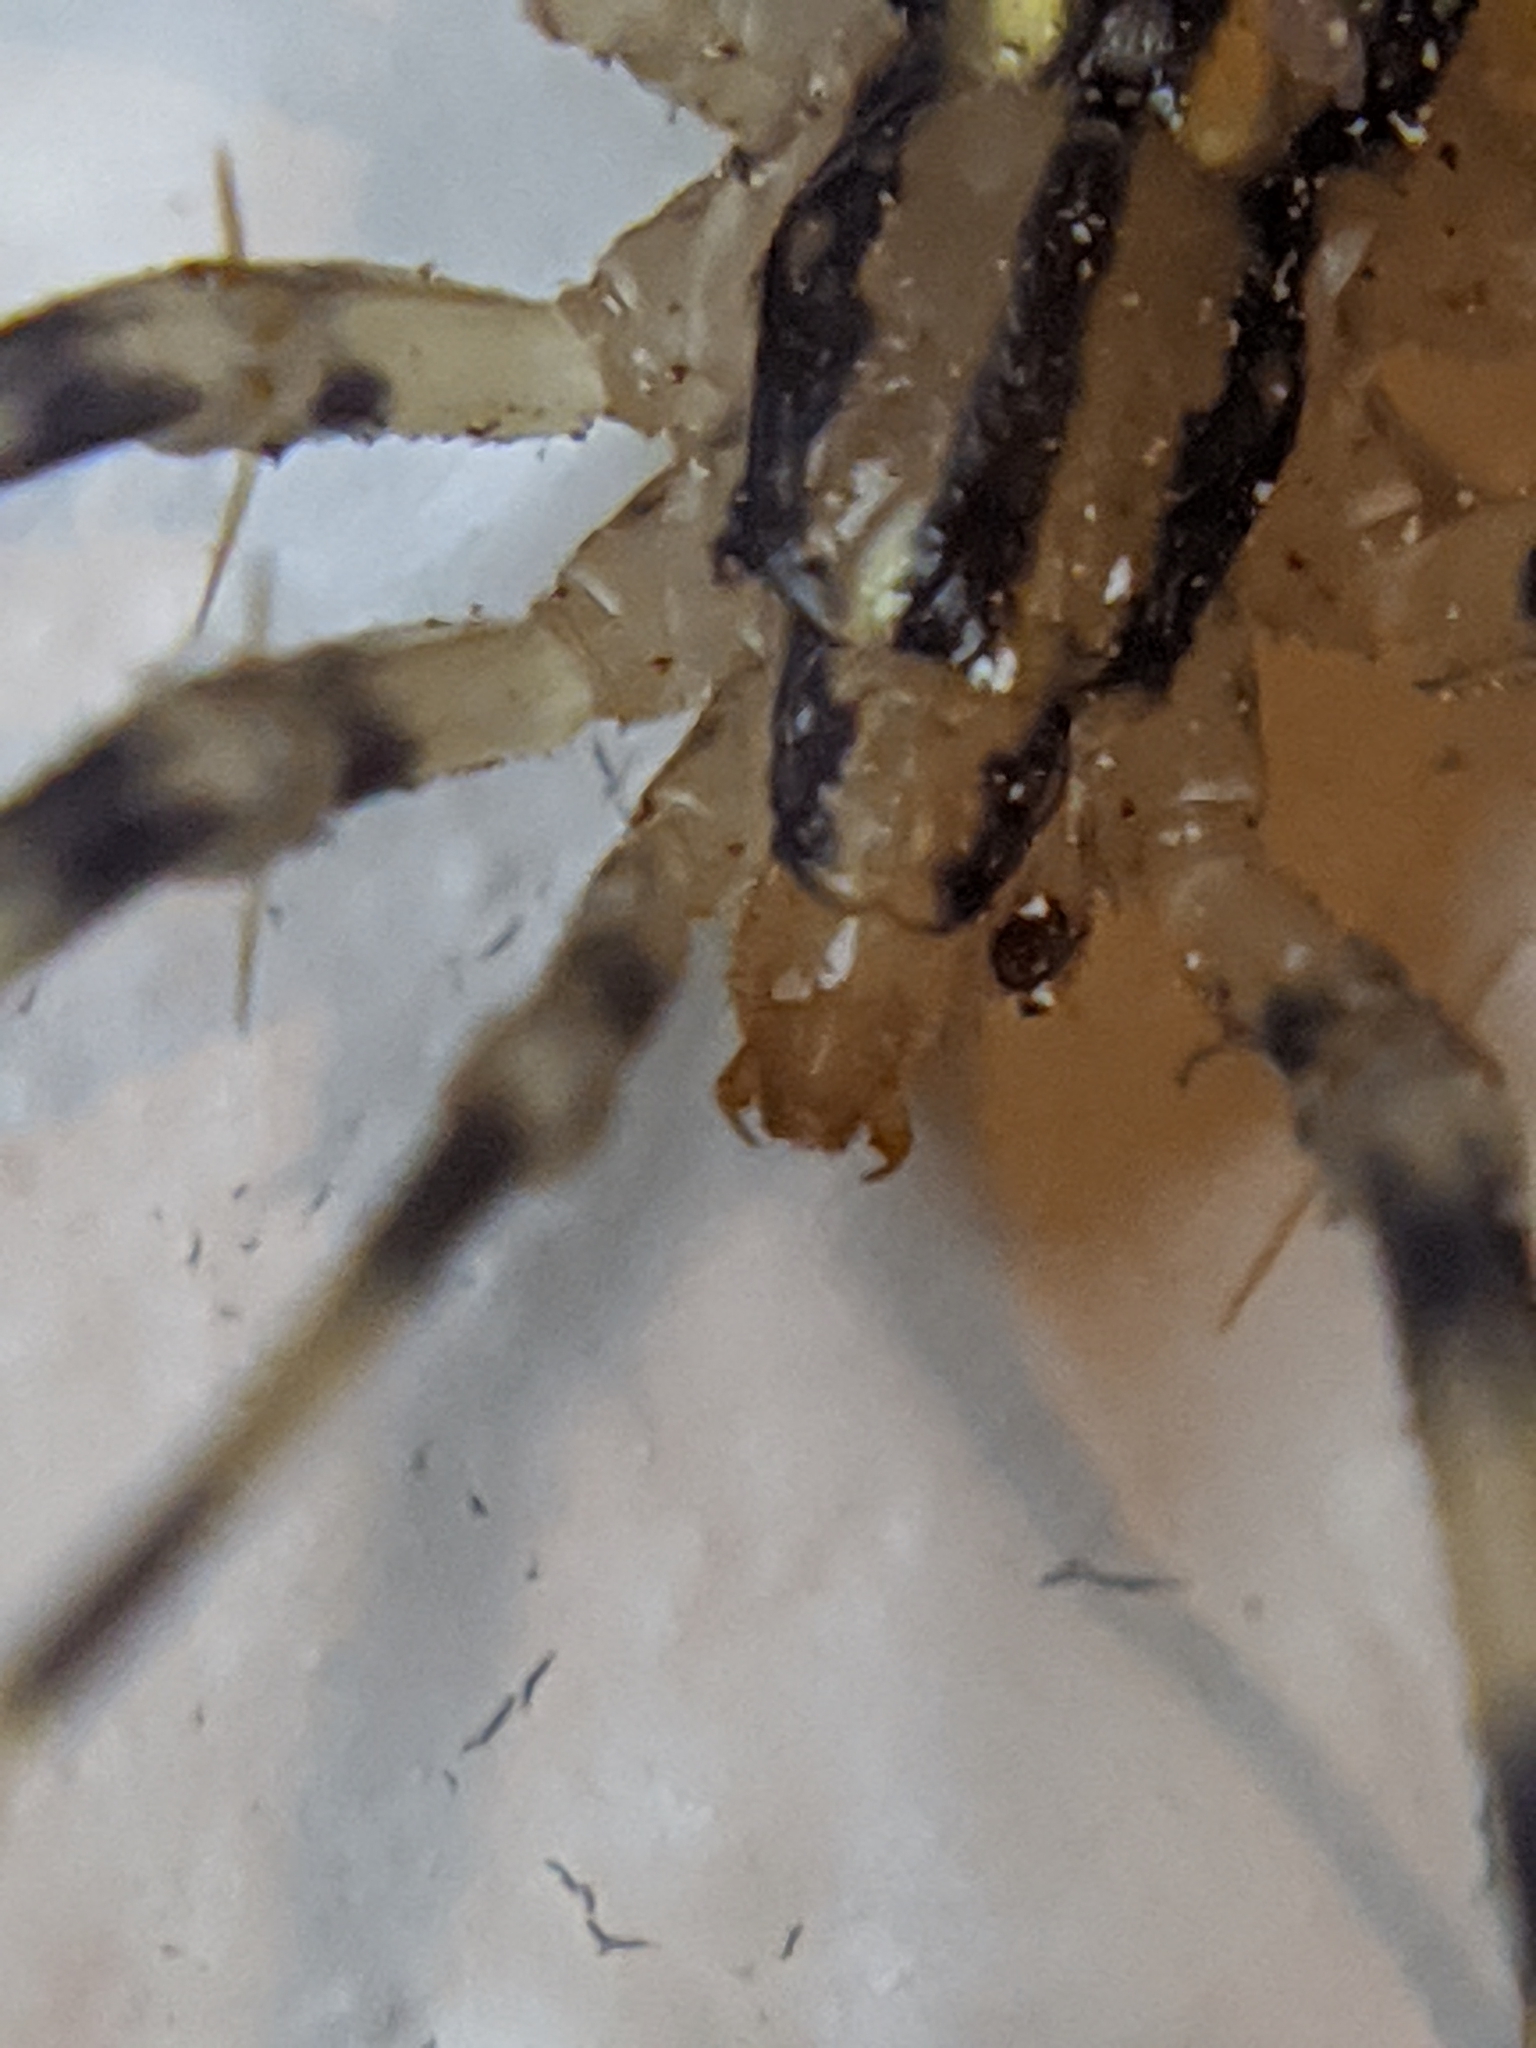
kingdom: Animalia
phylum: Arthropoda
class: Chilopoda
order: Scutigeromorpha
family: Scutigeridae
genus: Scutigera
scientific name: Scutigera coleoptrata
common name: House centipede
